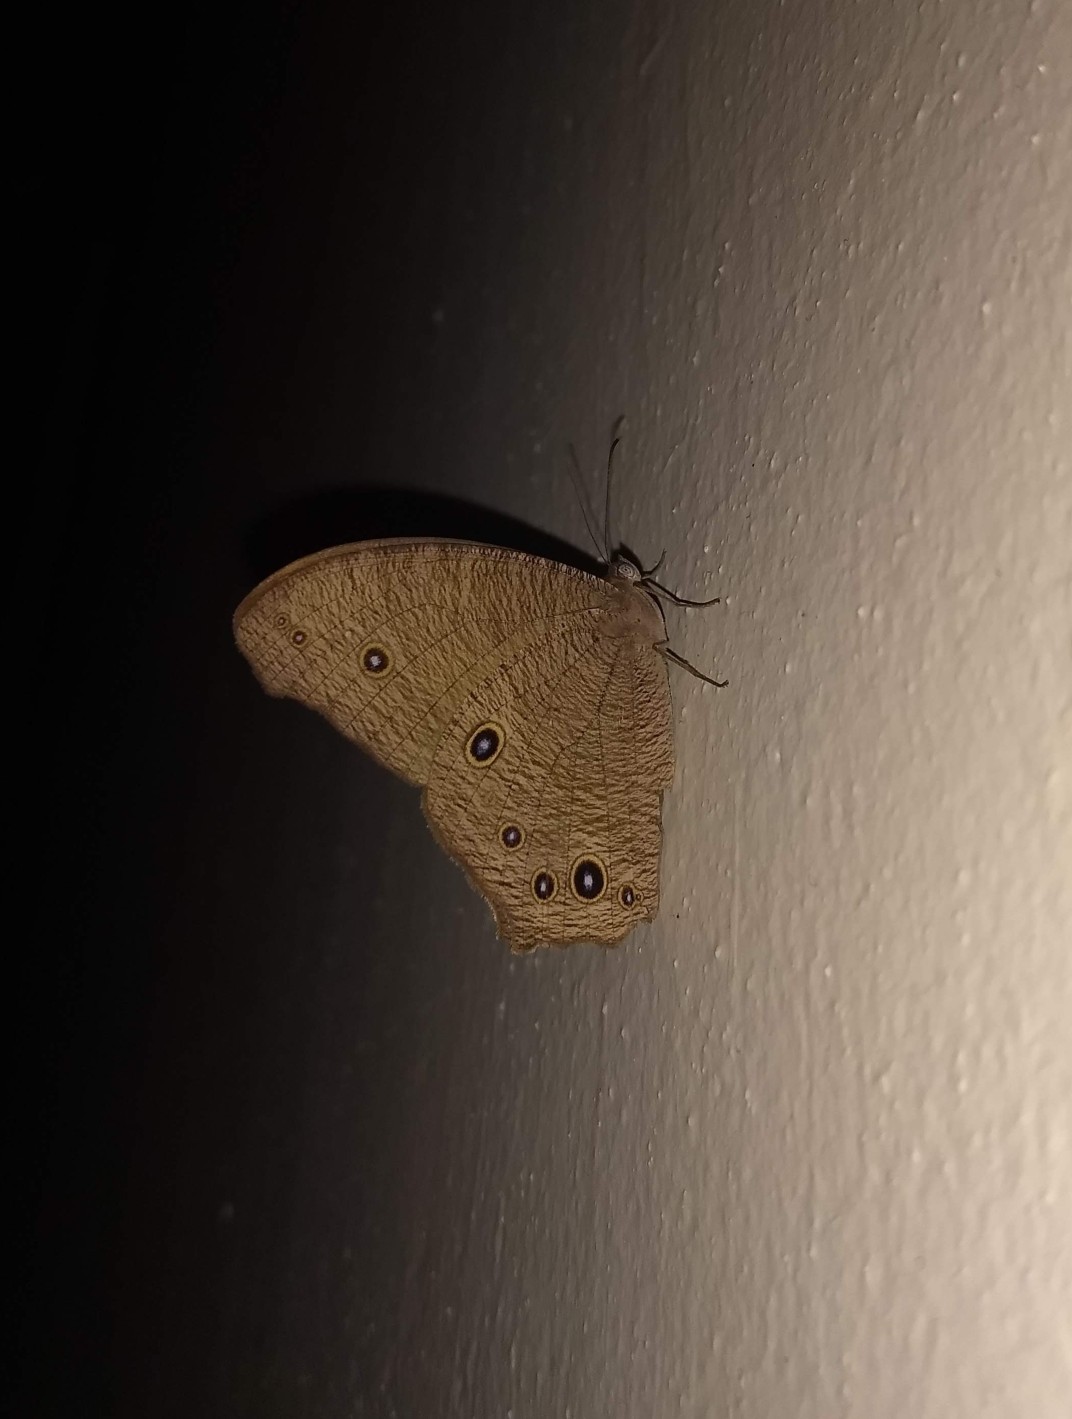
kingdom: Animalia
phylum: Arthropoda
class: Insecta
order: Lepidoptera
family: Nymphalidae
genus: Melanitis
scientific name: Melanitis leda
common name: Twilight brown
